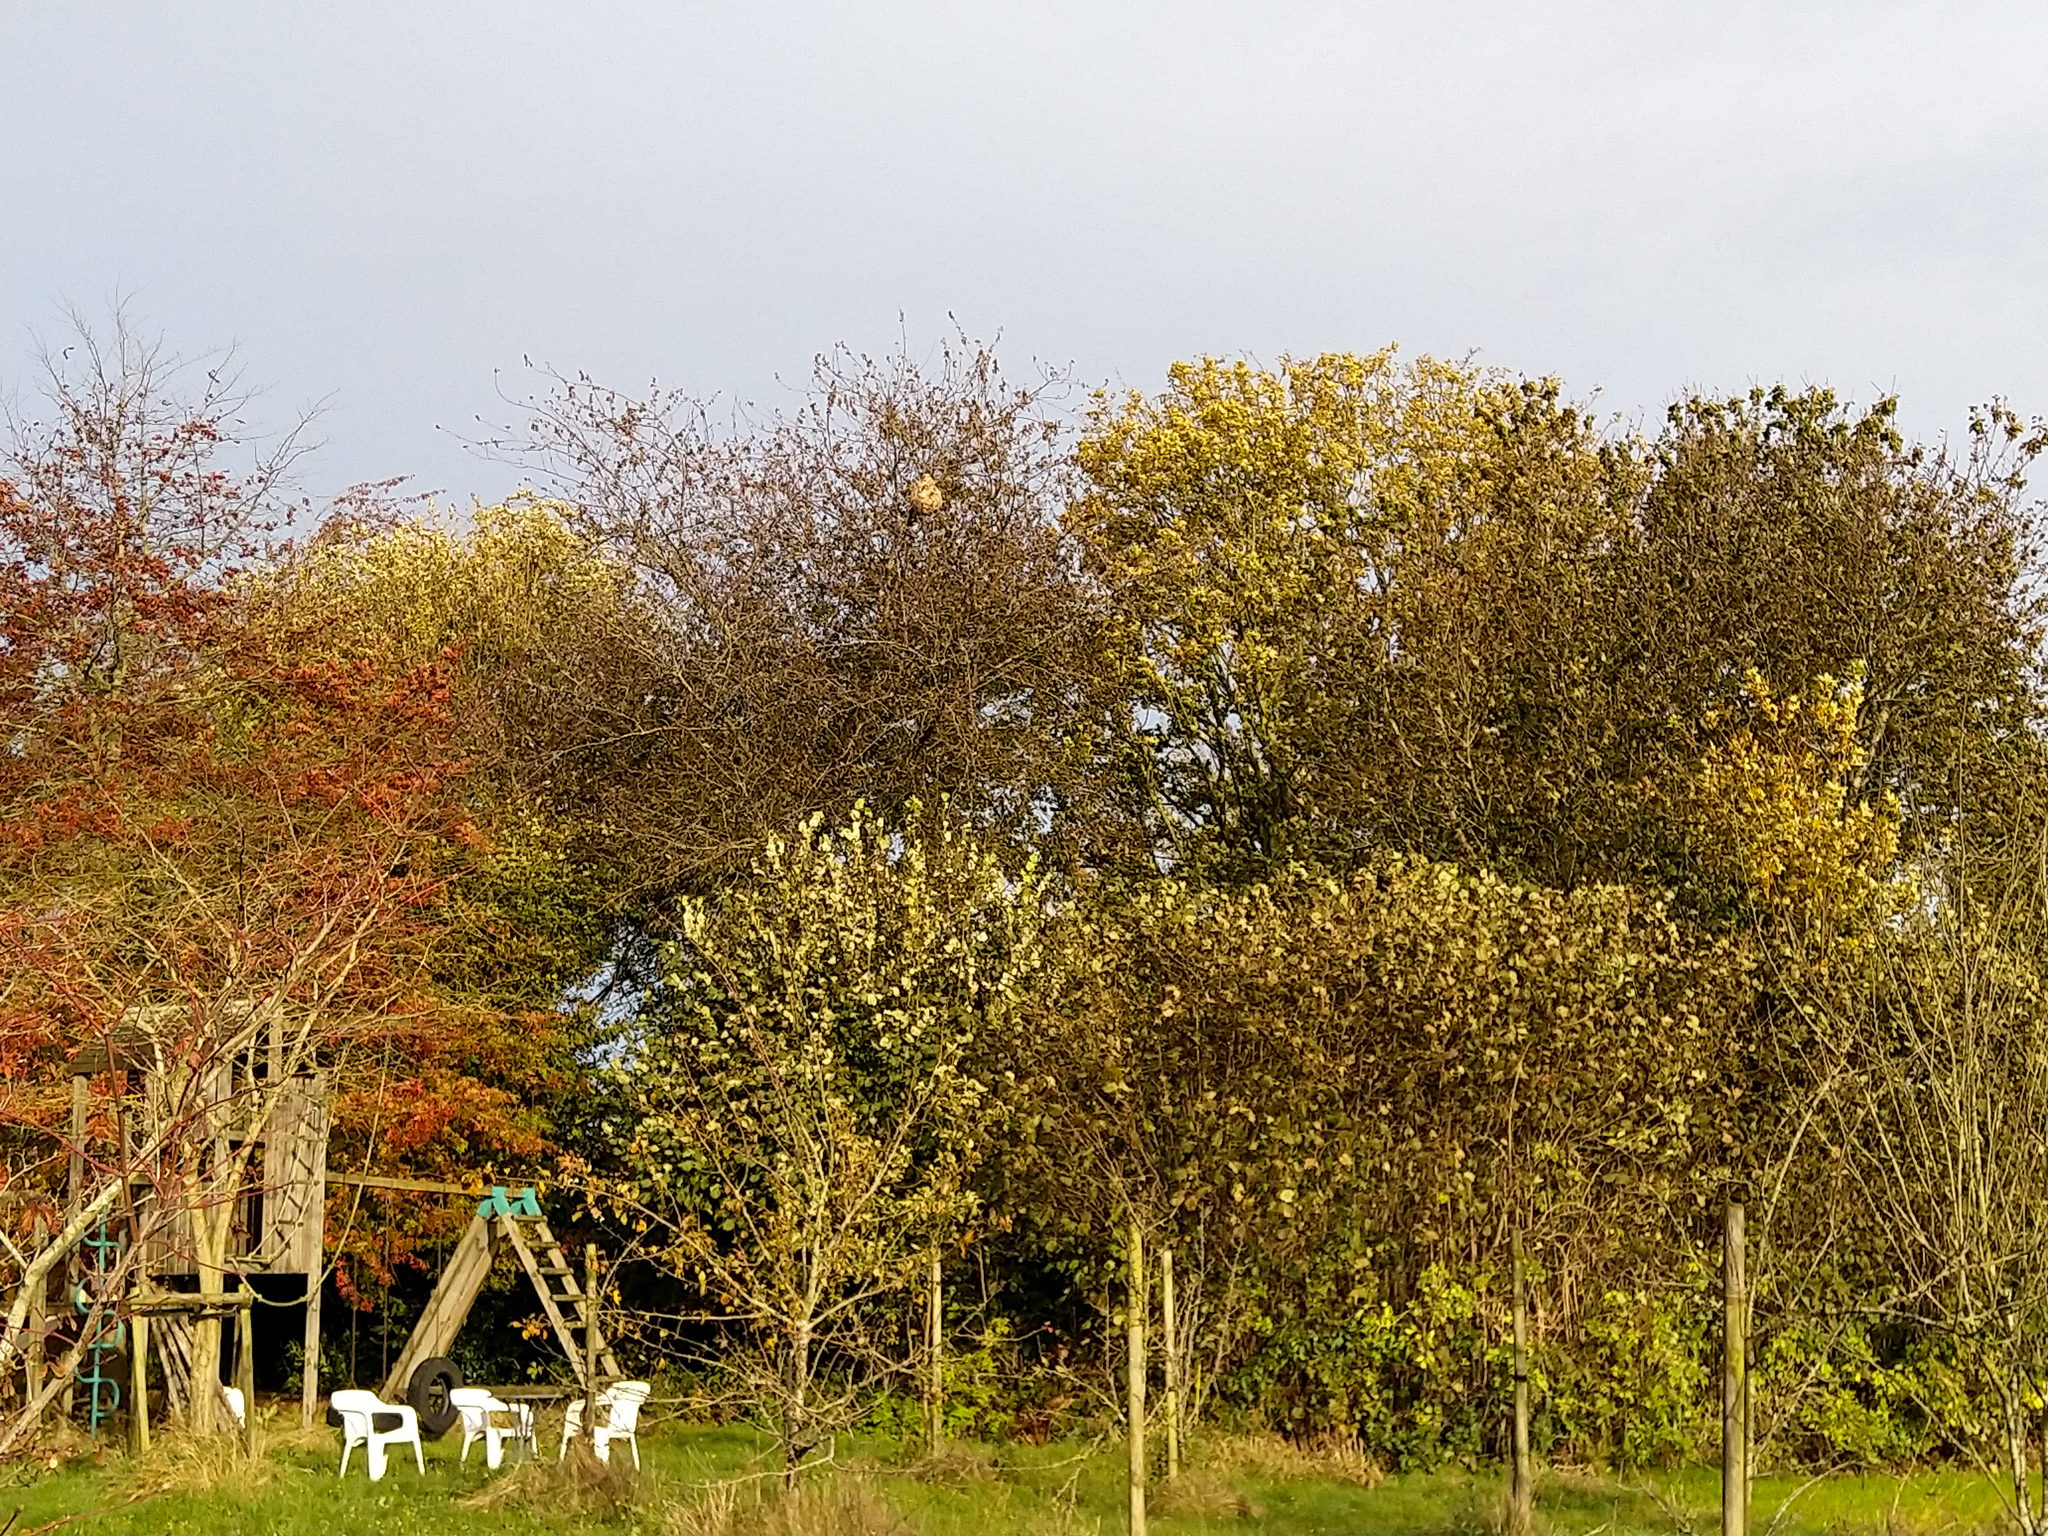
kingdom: Animalia
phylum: Arthropoda
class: Insecta
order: Hymenoptera
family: Vespidae
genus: Vespa
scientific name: Vespa velutina
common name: Asian hornet
